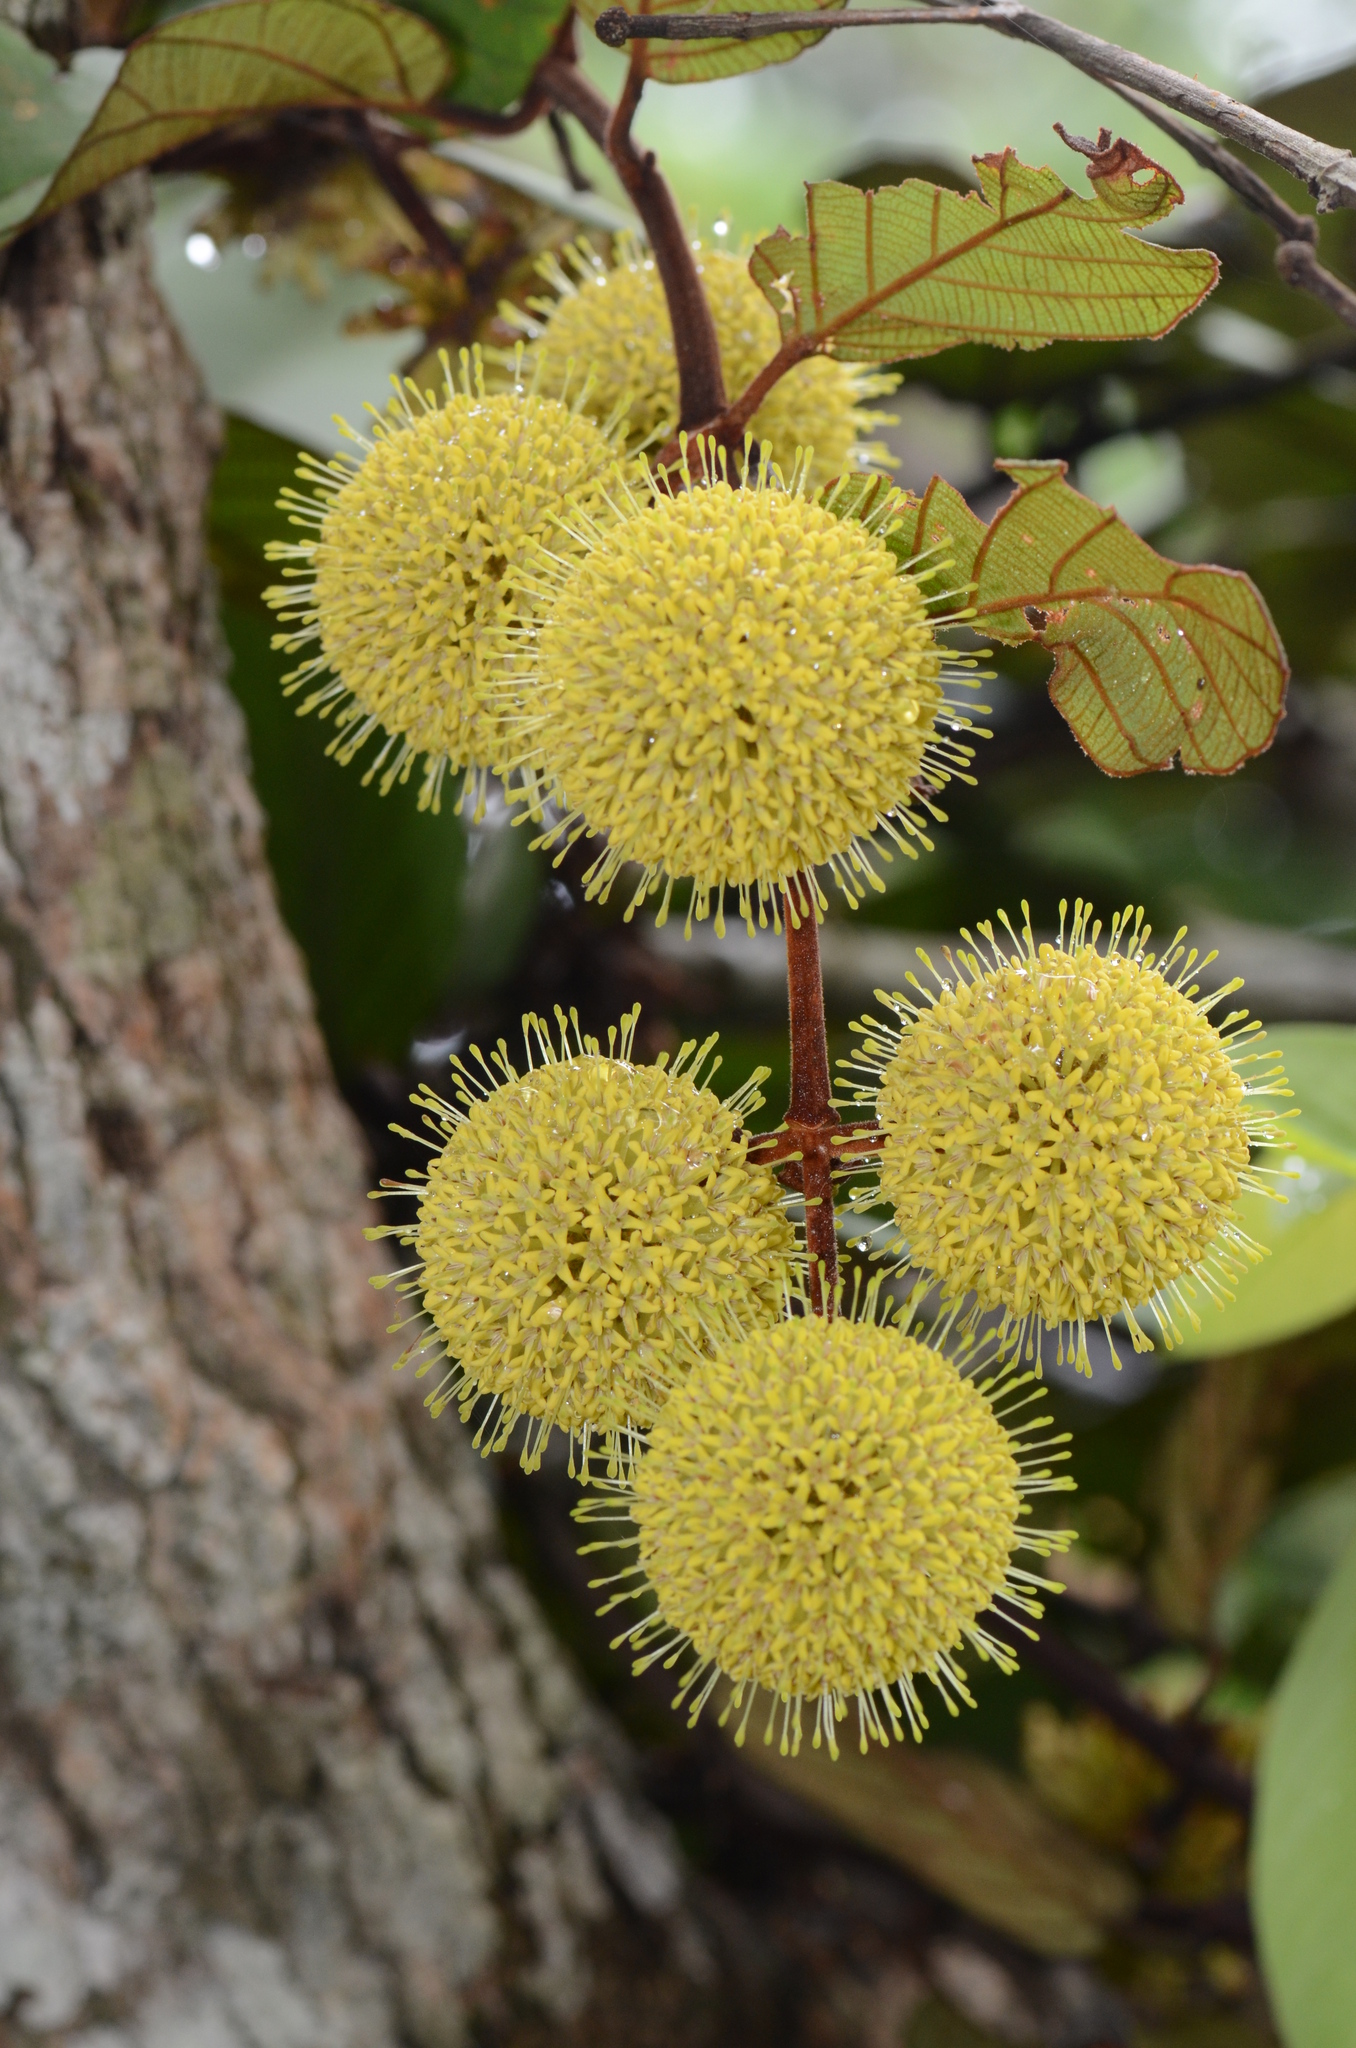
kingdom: Plantae
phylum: Tracheophyta
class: Magnoliopsida
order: Gentianales
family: Rubiaceae
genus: Uncaria
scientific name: Uncaria cordata
